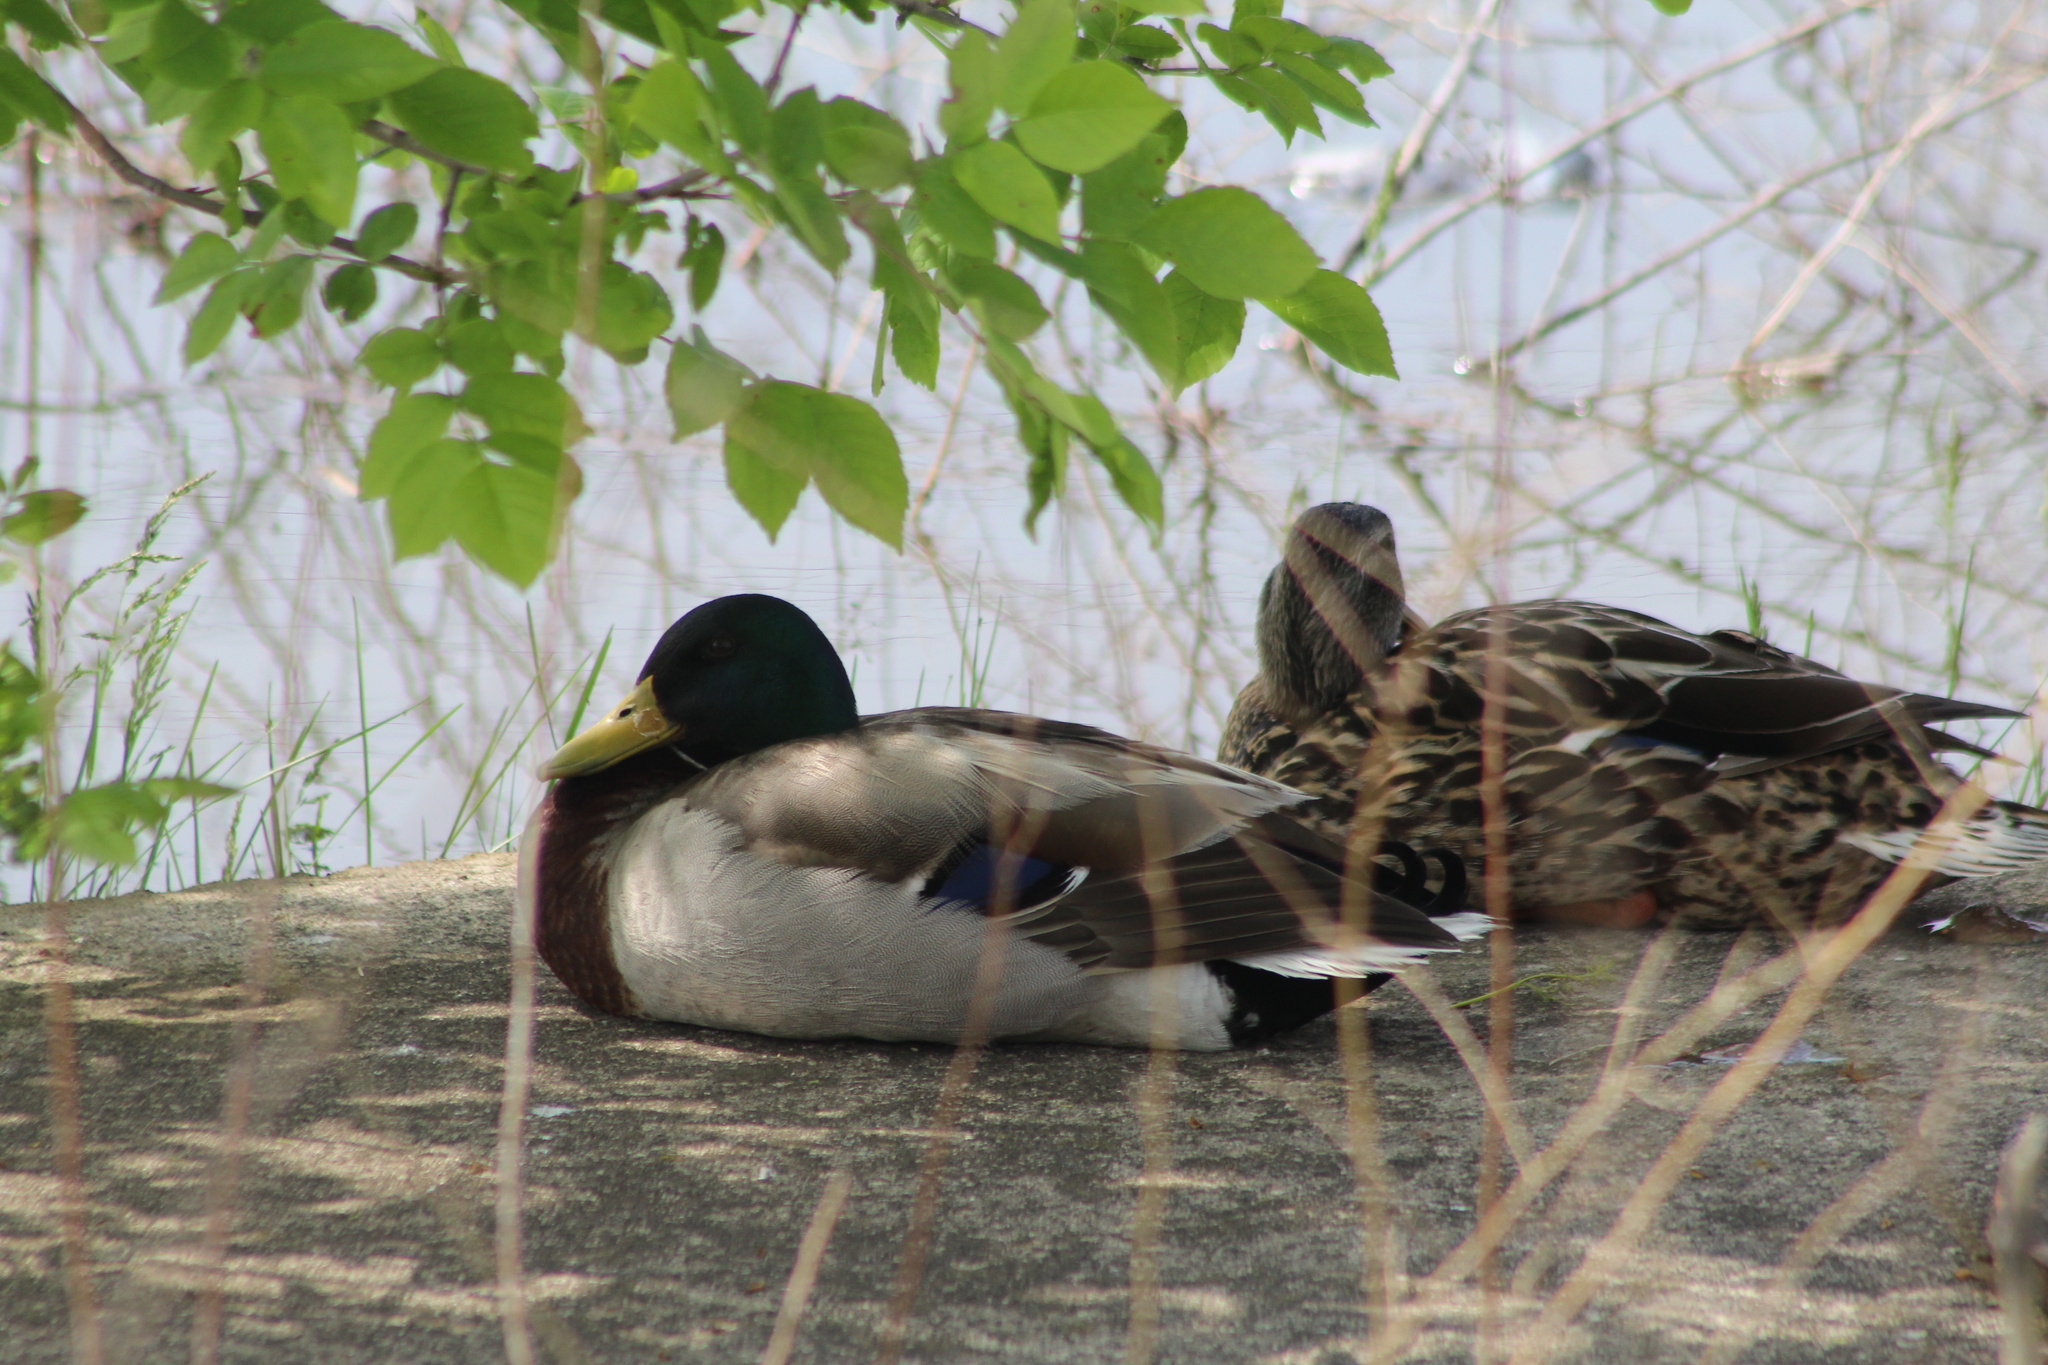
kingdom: Animalia
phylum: Chordata
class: Aves
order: Anseriformes
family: Anatidae
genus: Anas
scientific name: Anas platyrhynchos
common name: Mallard
